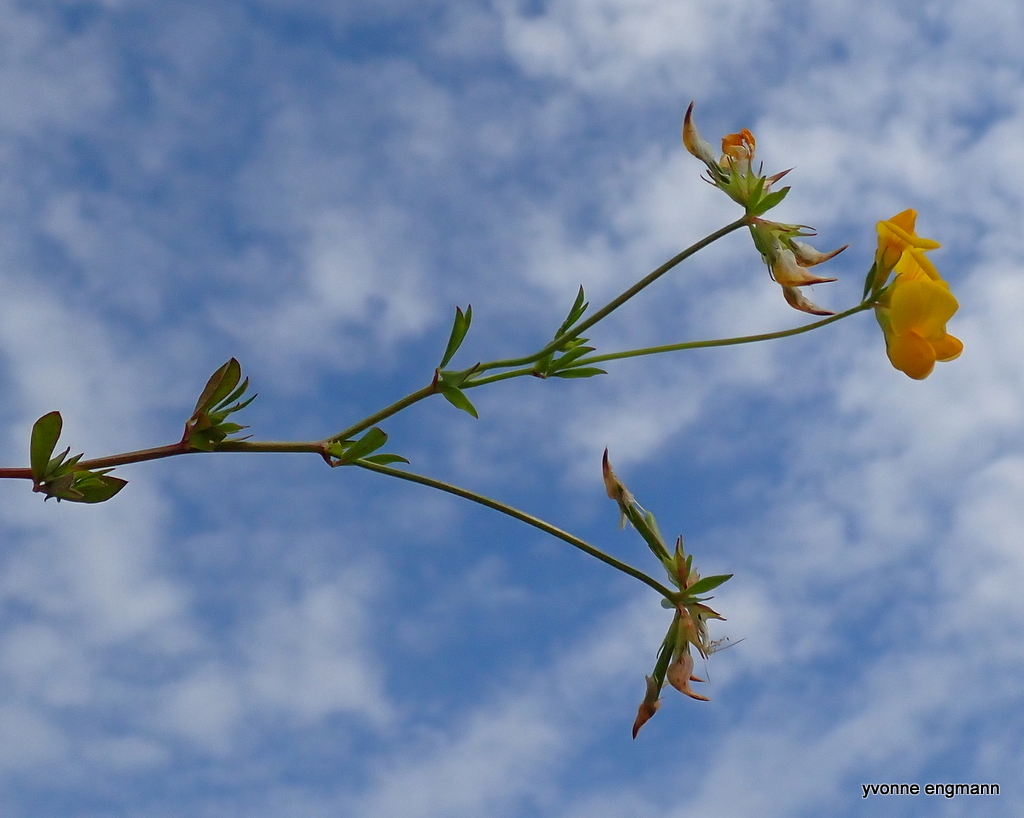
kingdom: Plantae
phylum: Tracheophyta
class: Magnoliopsida
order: Fabales
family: Fabaceae
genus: Lotus
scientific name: Lotus tenuis
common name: Narrow-leaved bird's-foot-trefoil
